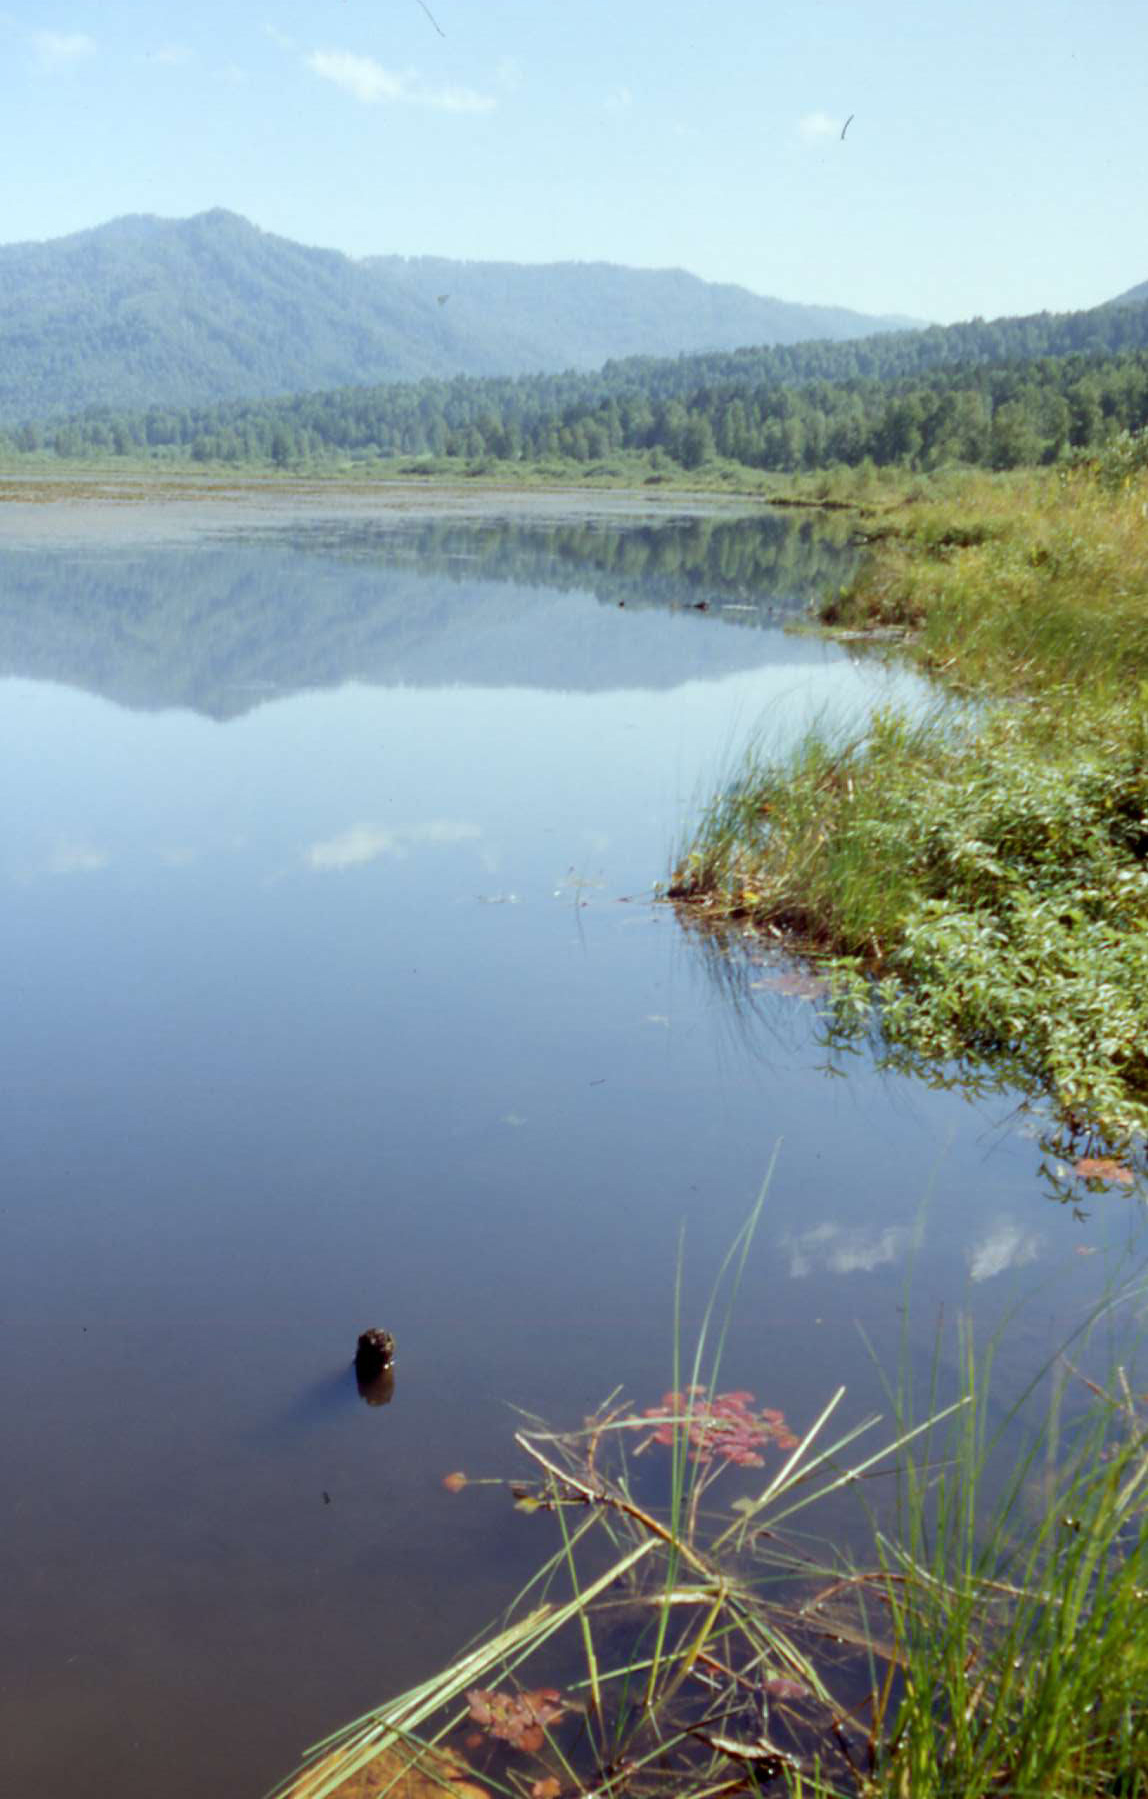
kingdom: Plantae
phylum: Tracheophyta
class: Magnoliopsida
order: Myrtales
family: Lythraceae
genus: Trapa
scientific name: Trapa natans
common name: Water chestnut
